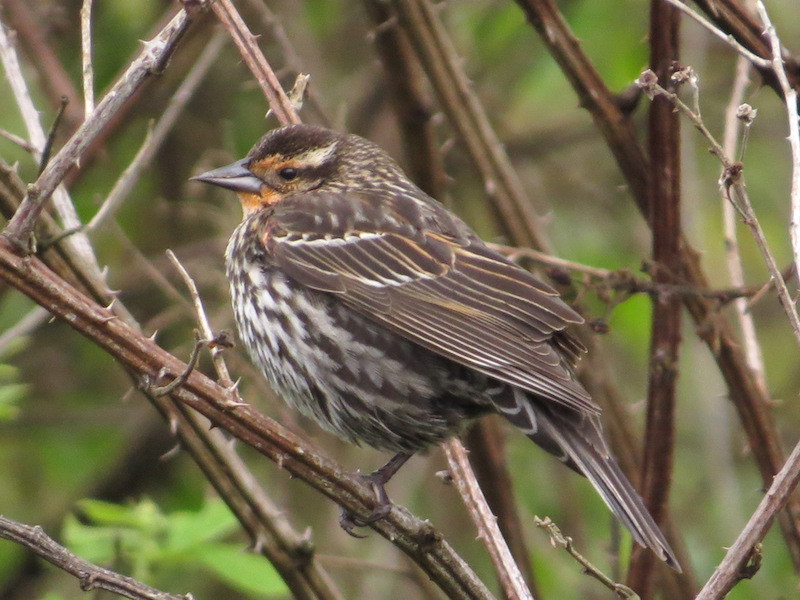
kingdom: Animalia
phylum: Chordata
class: Aves
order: Passeriformes
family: Icteridae
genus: Agelaius
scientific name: Agelaius phoeniceus
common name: Red-winged blackbird
